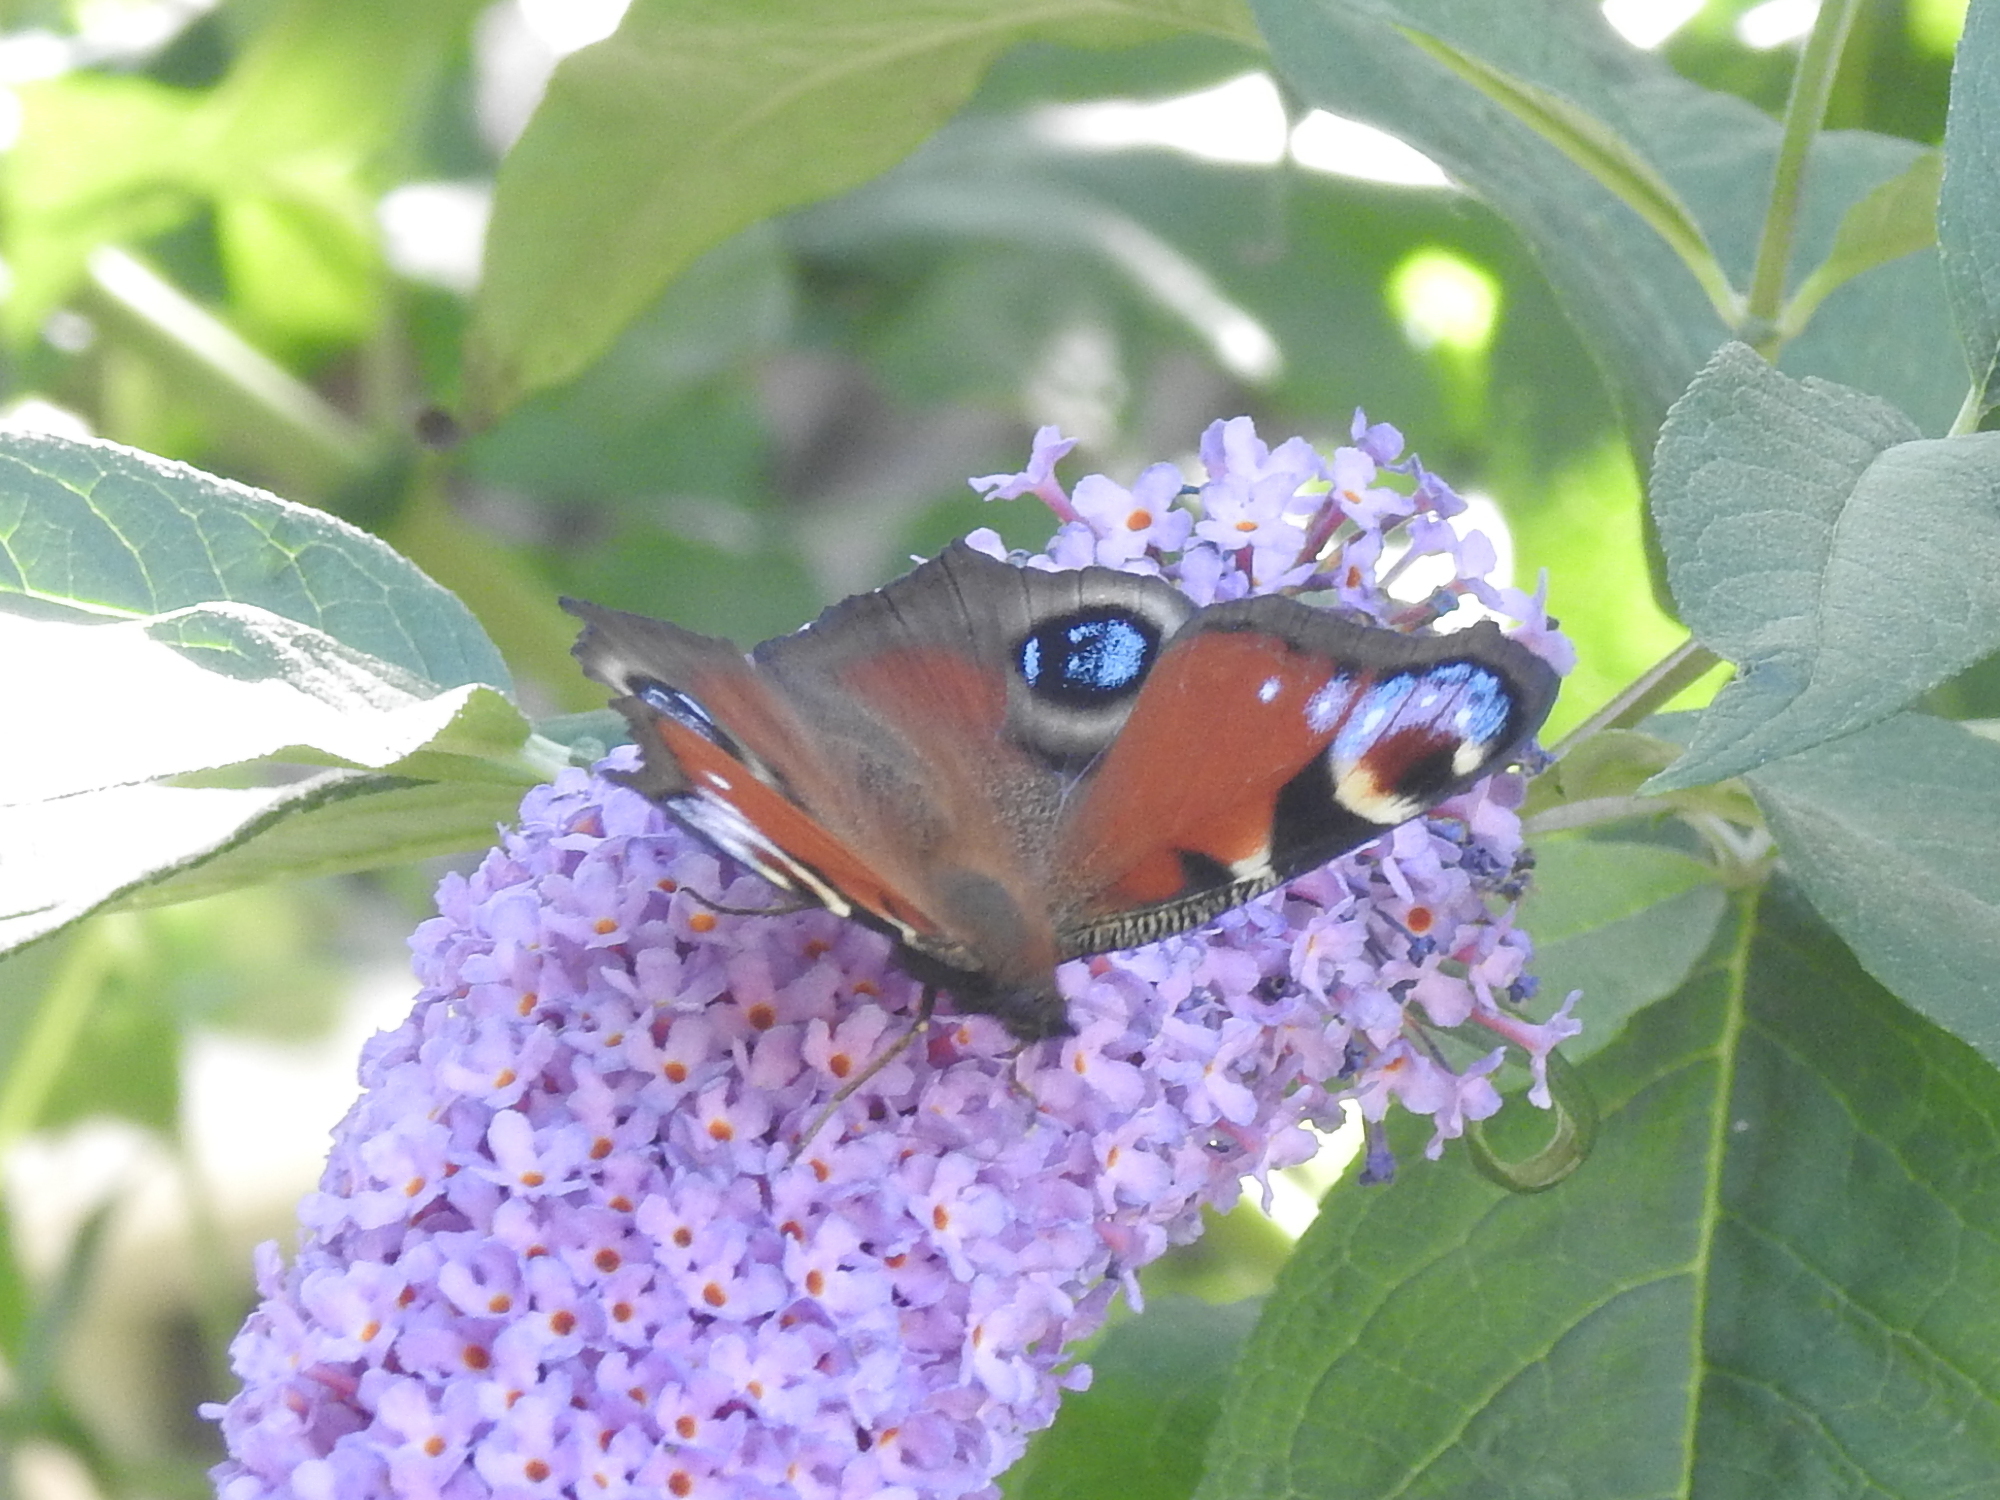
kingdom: Animalia
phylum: Arthropoda
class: Insecta
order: Lepidoptera
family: Nymphalidae
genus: Aglais
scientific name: Aglais io
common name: Peacock
